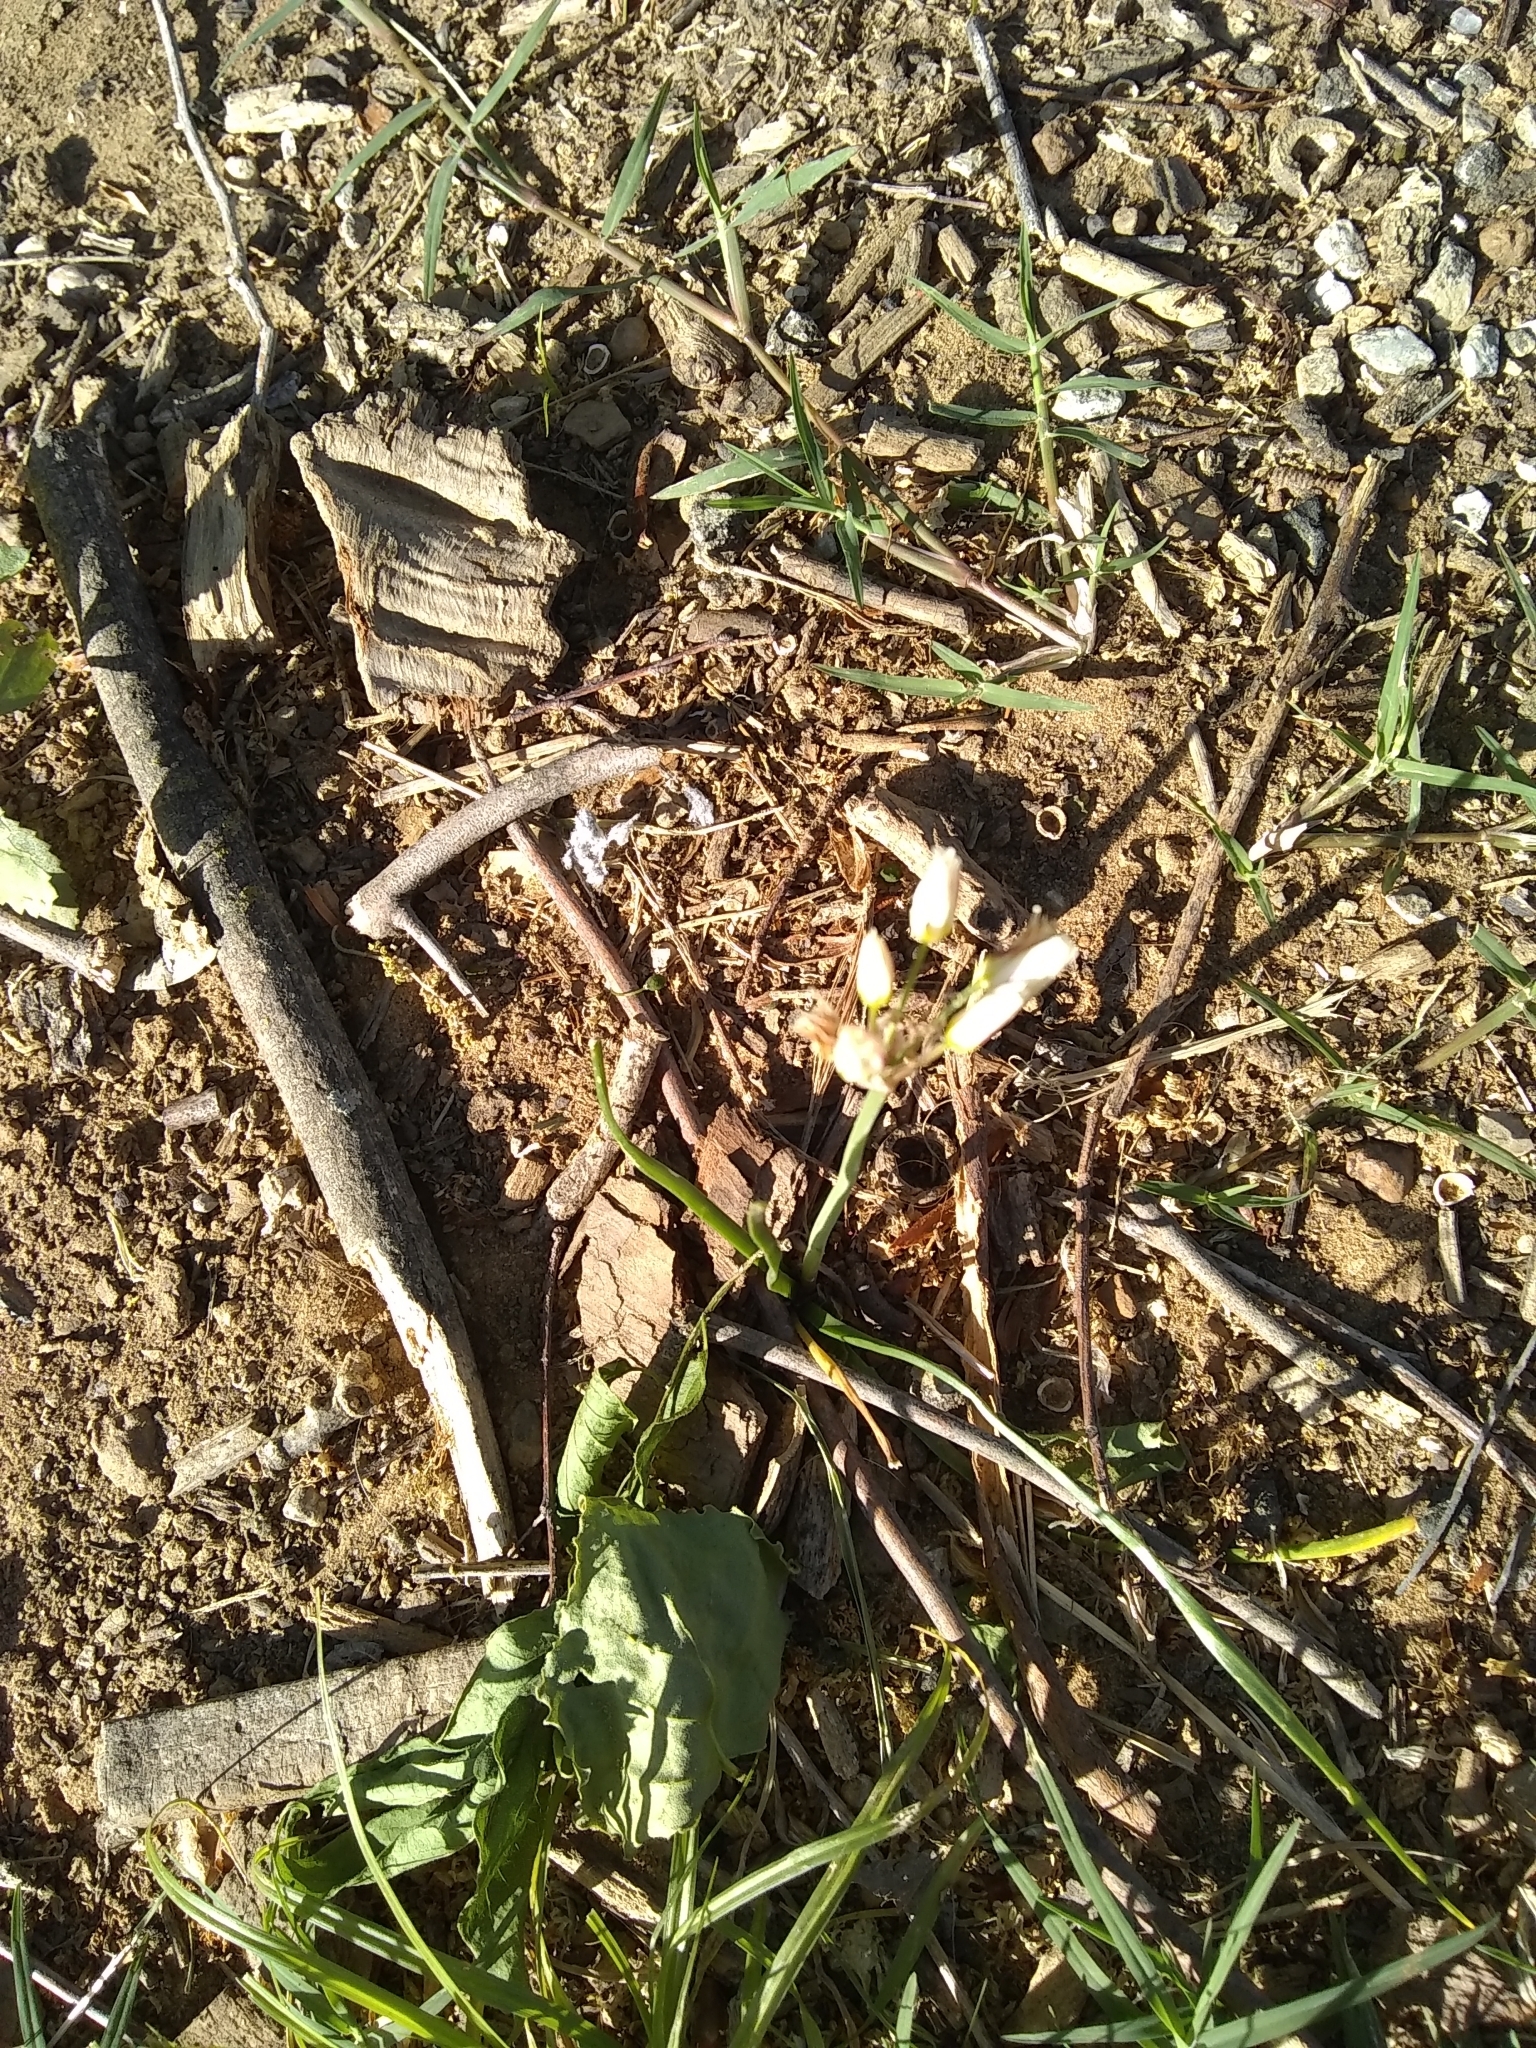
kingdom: Plantae
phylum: Tracheophyta
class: Liliopsida
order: Asparagales
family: Amaryllidaceae
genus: Nothoscordum
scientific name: Nothoscordum bivalve
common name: Crow-poison
